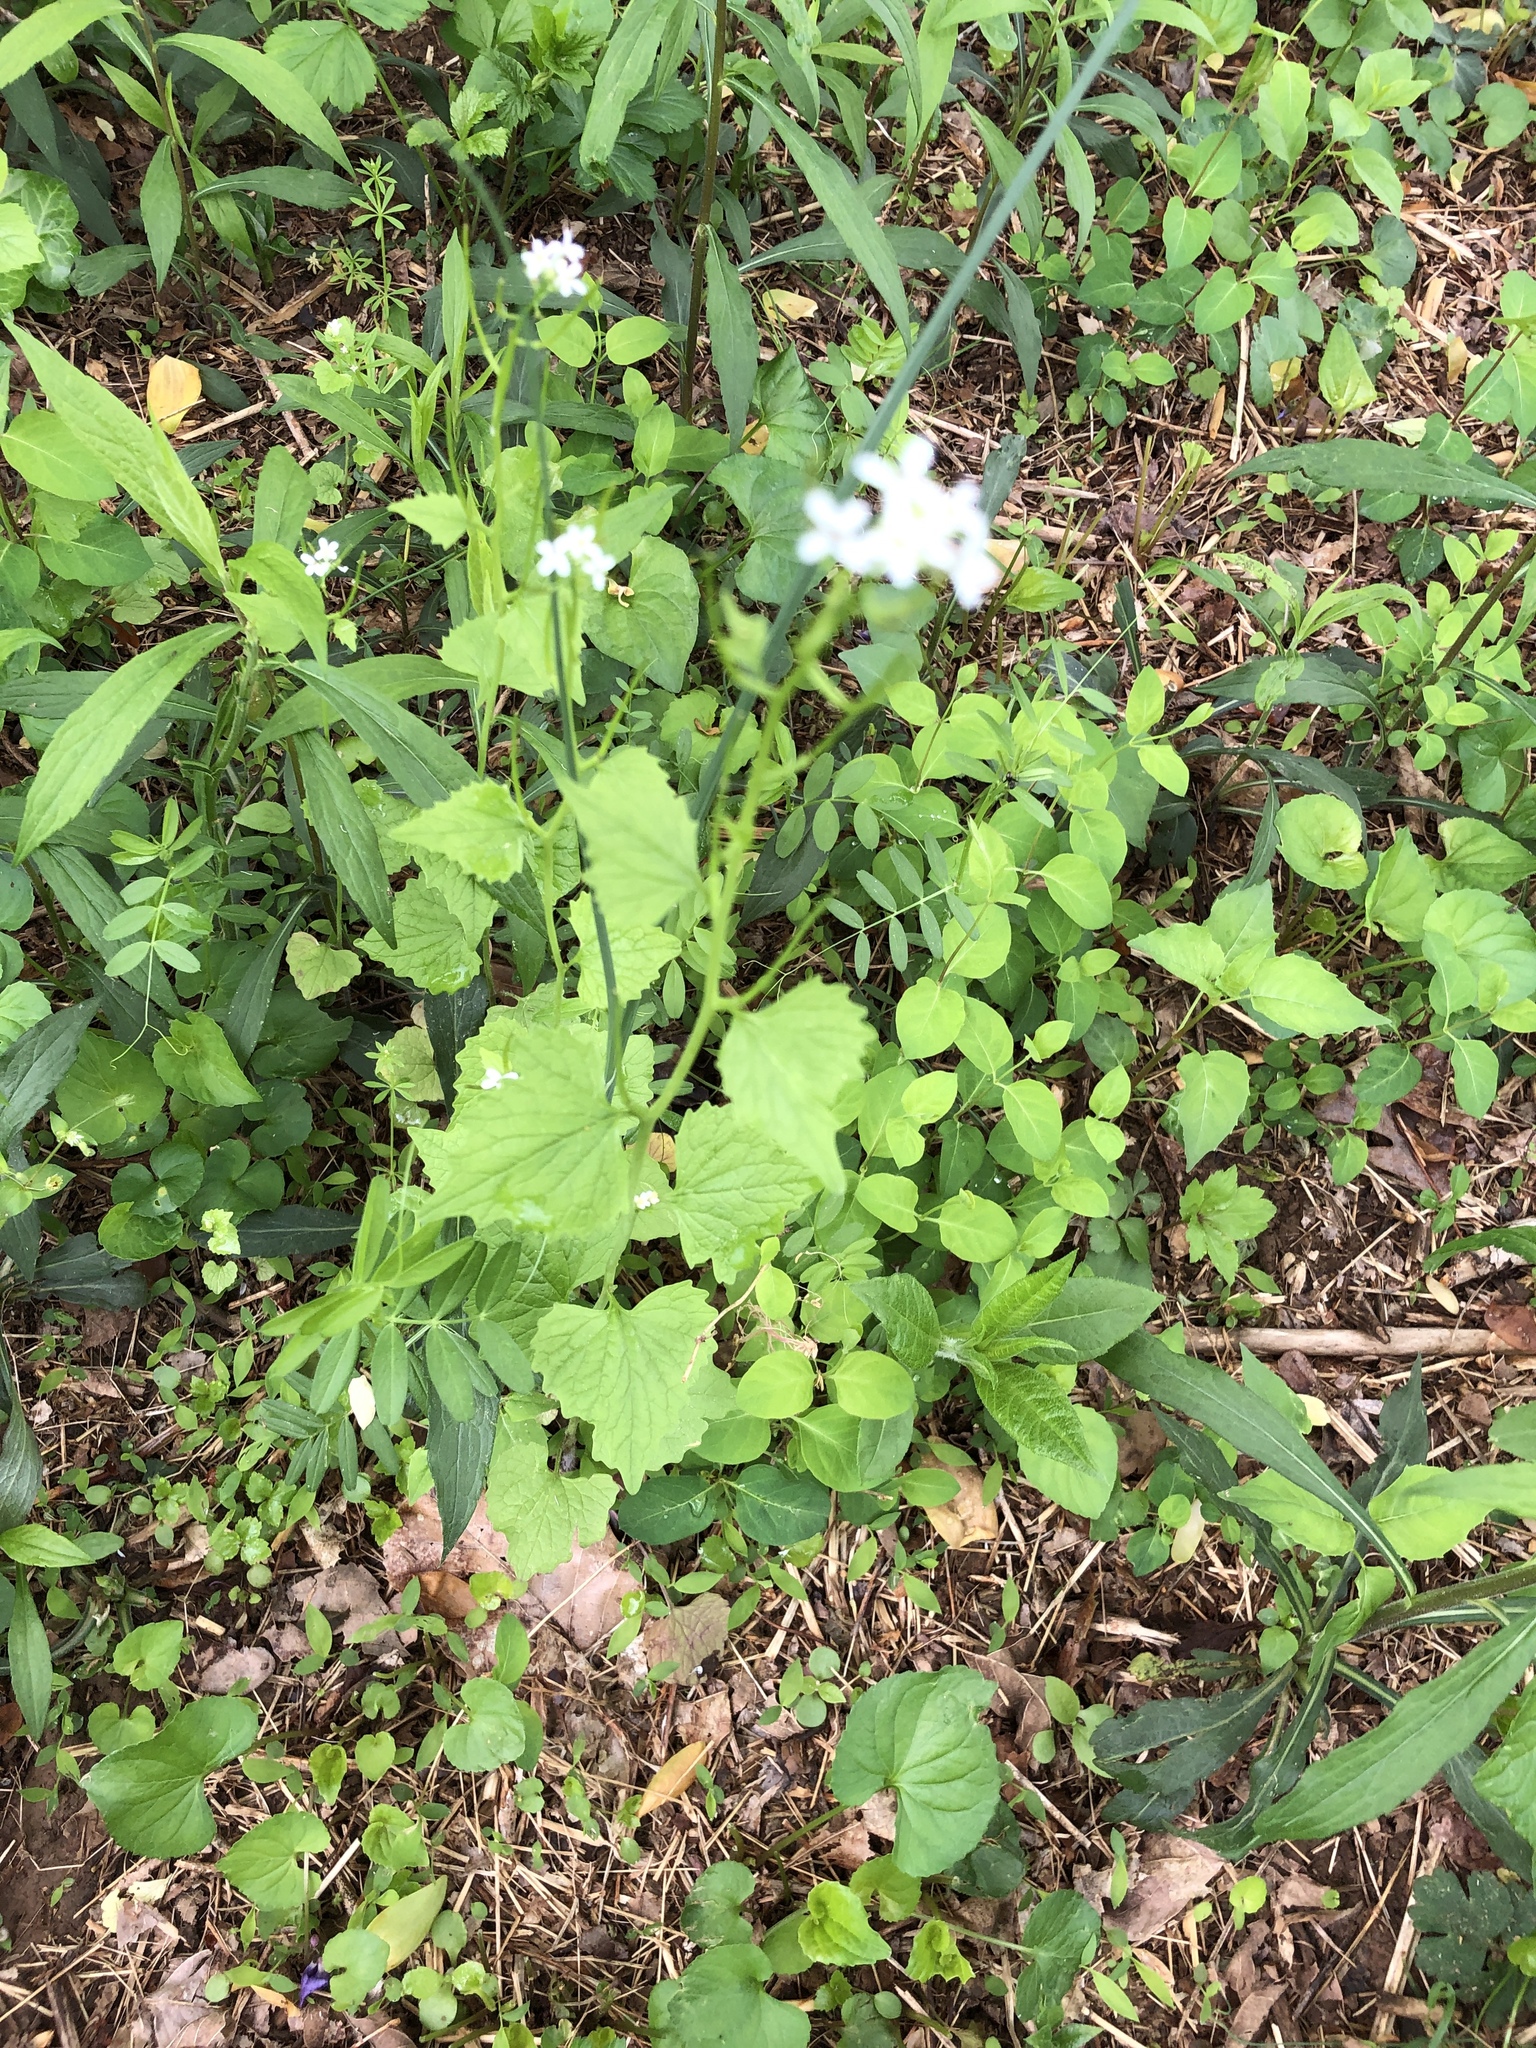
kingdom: Plantae
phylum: Tracheophyta
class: Magnoliopsida
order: Brassicales
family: Brassicaceae
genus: Alliaria
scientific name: Alliaria petiolata
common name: Garlic mustard
